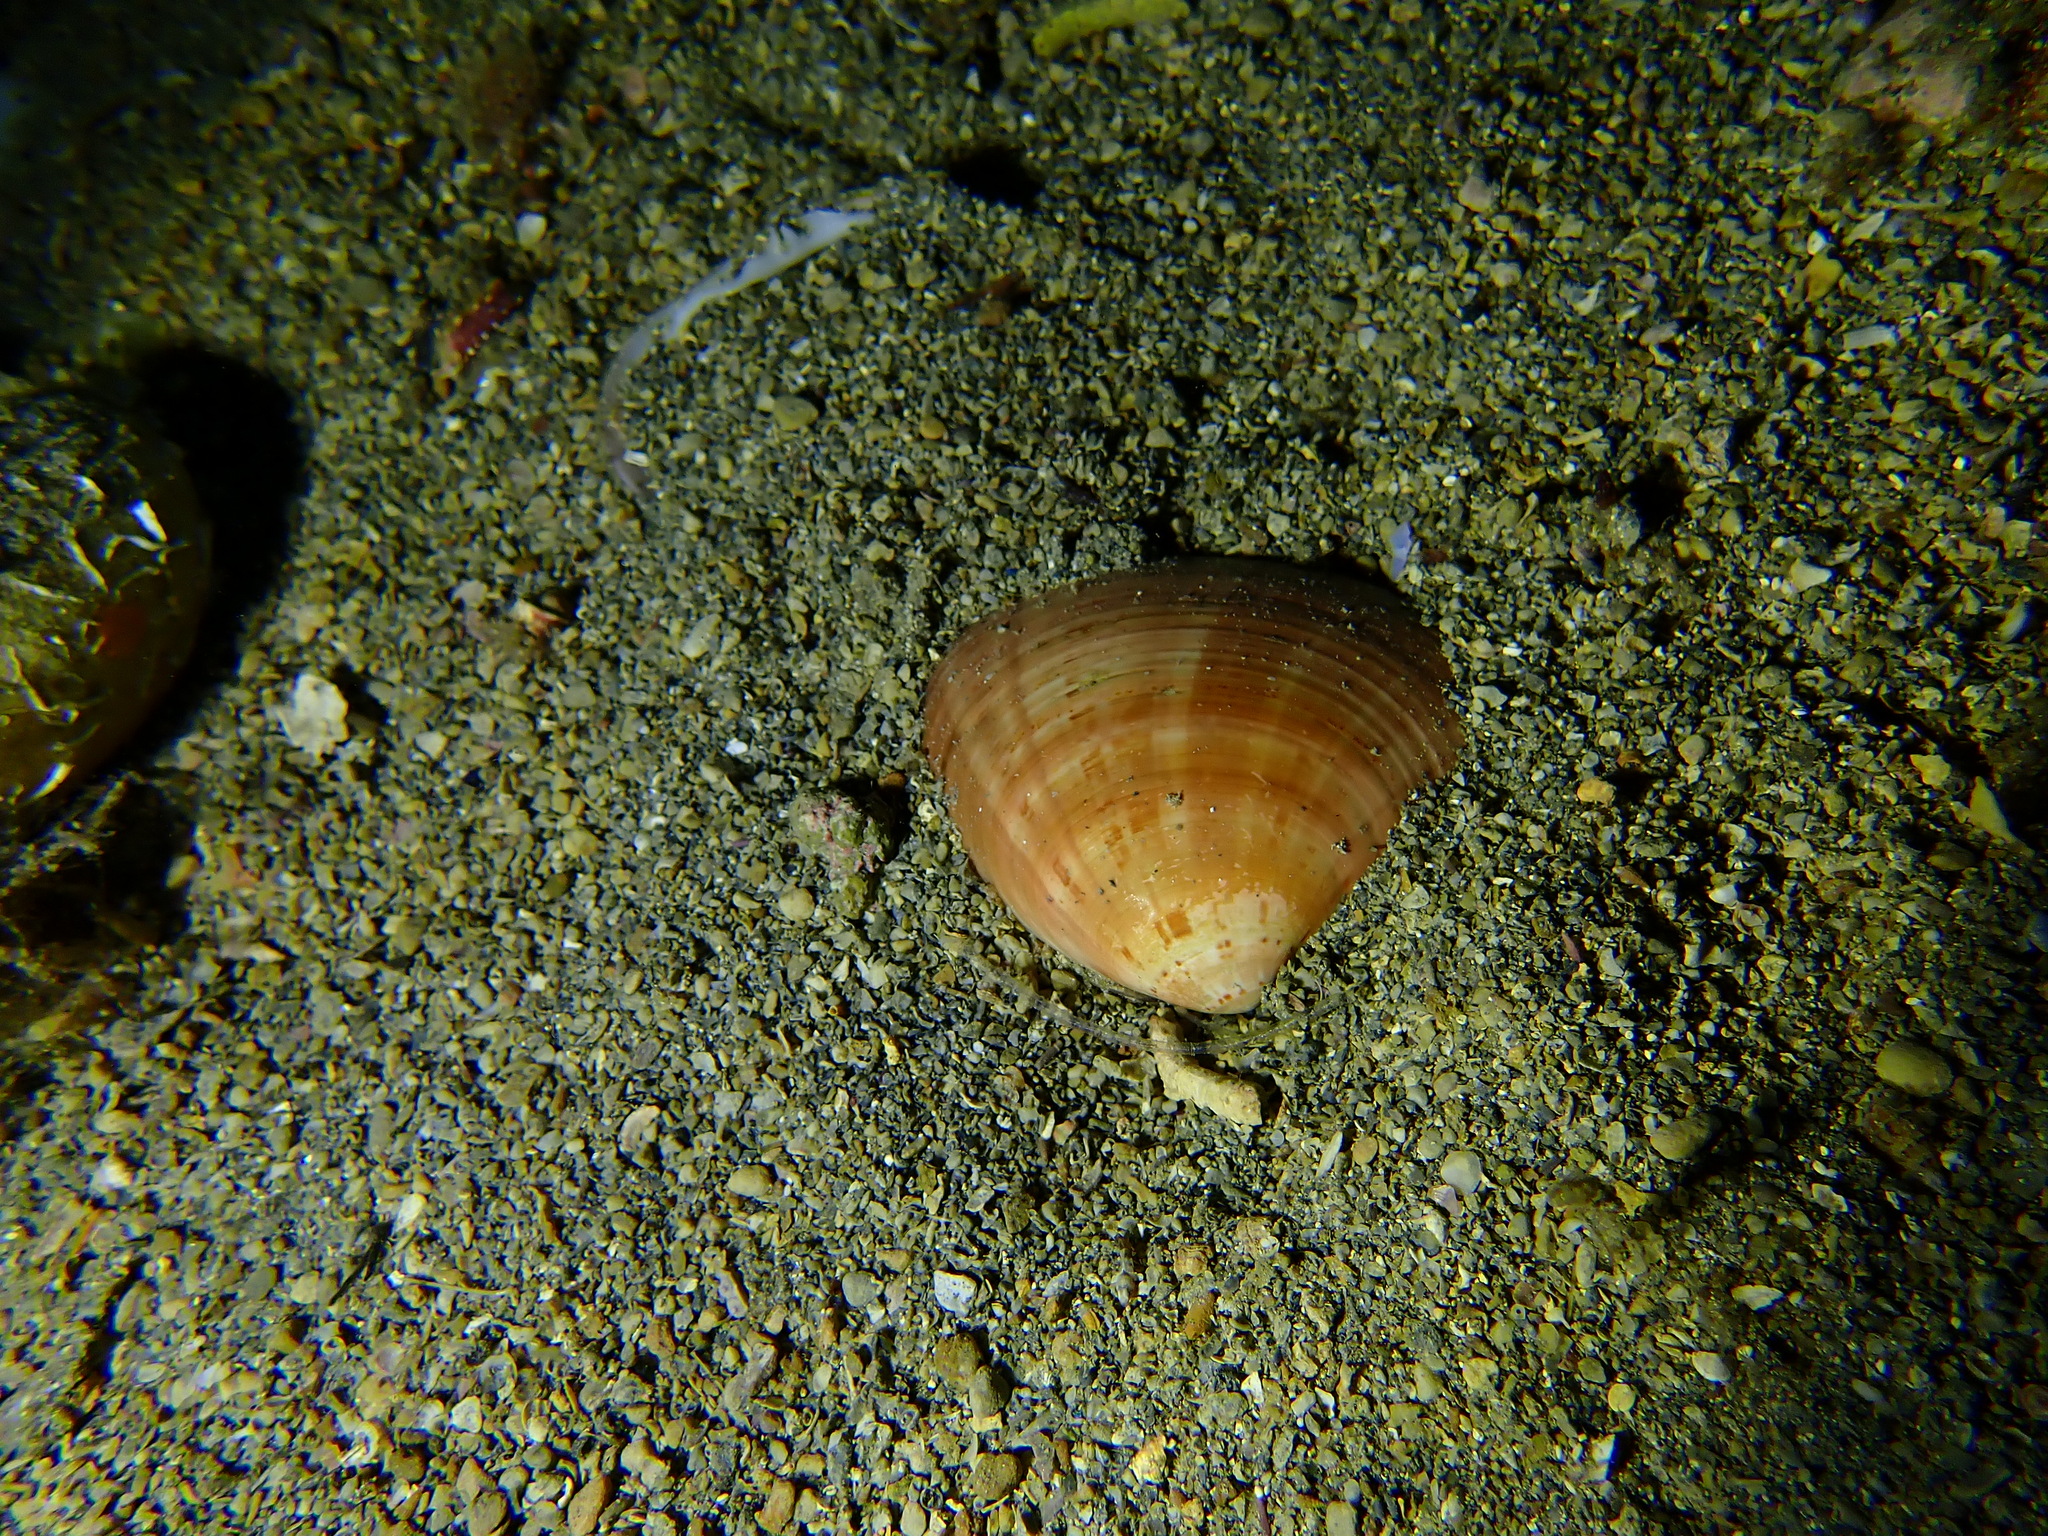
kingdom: Animalia
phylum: Mollusca
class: Bivalvia
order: Venerida
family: Veneridae
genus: Callista
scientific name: Callista chione
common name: Brown venus
